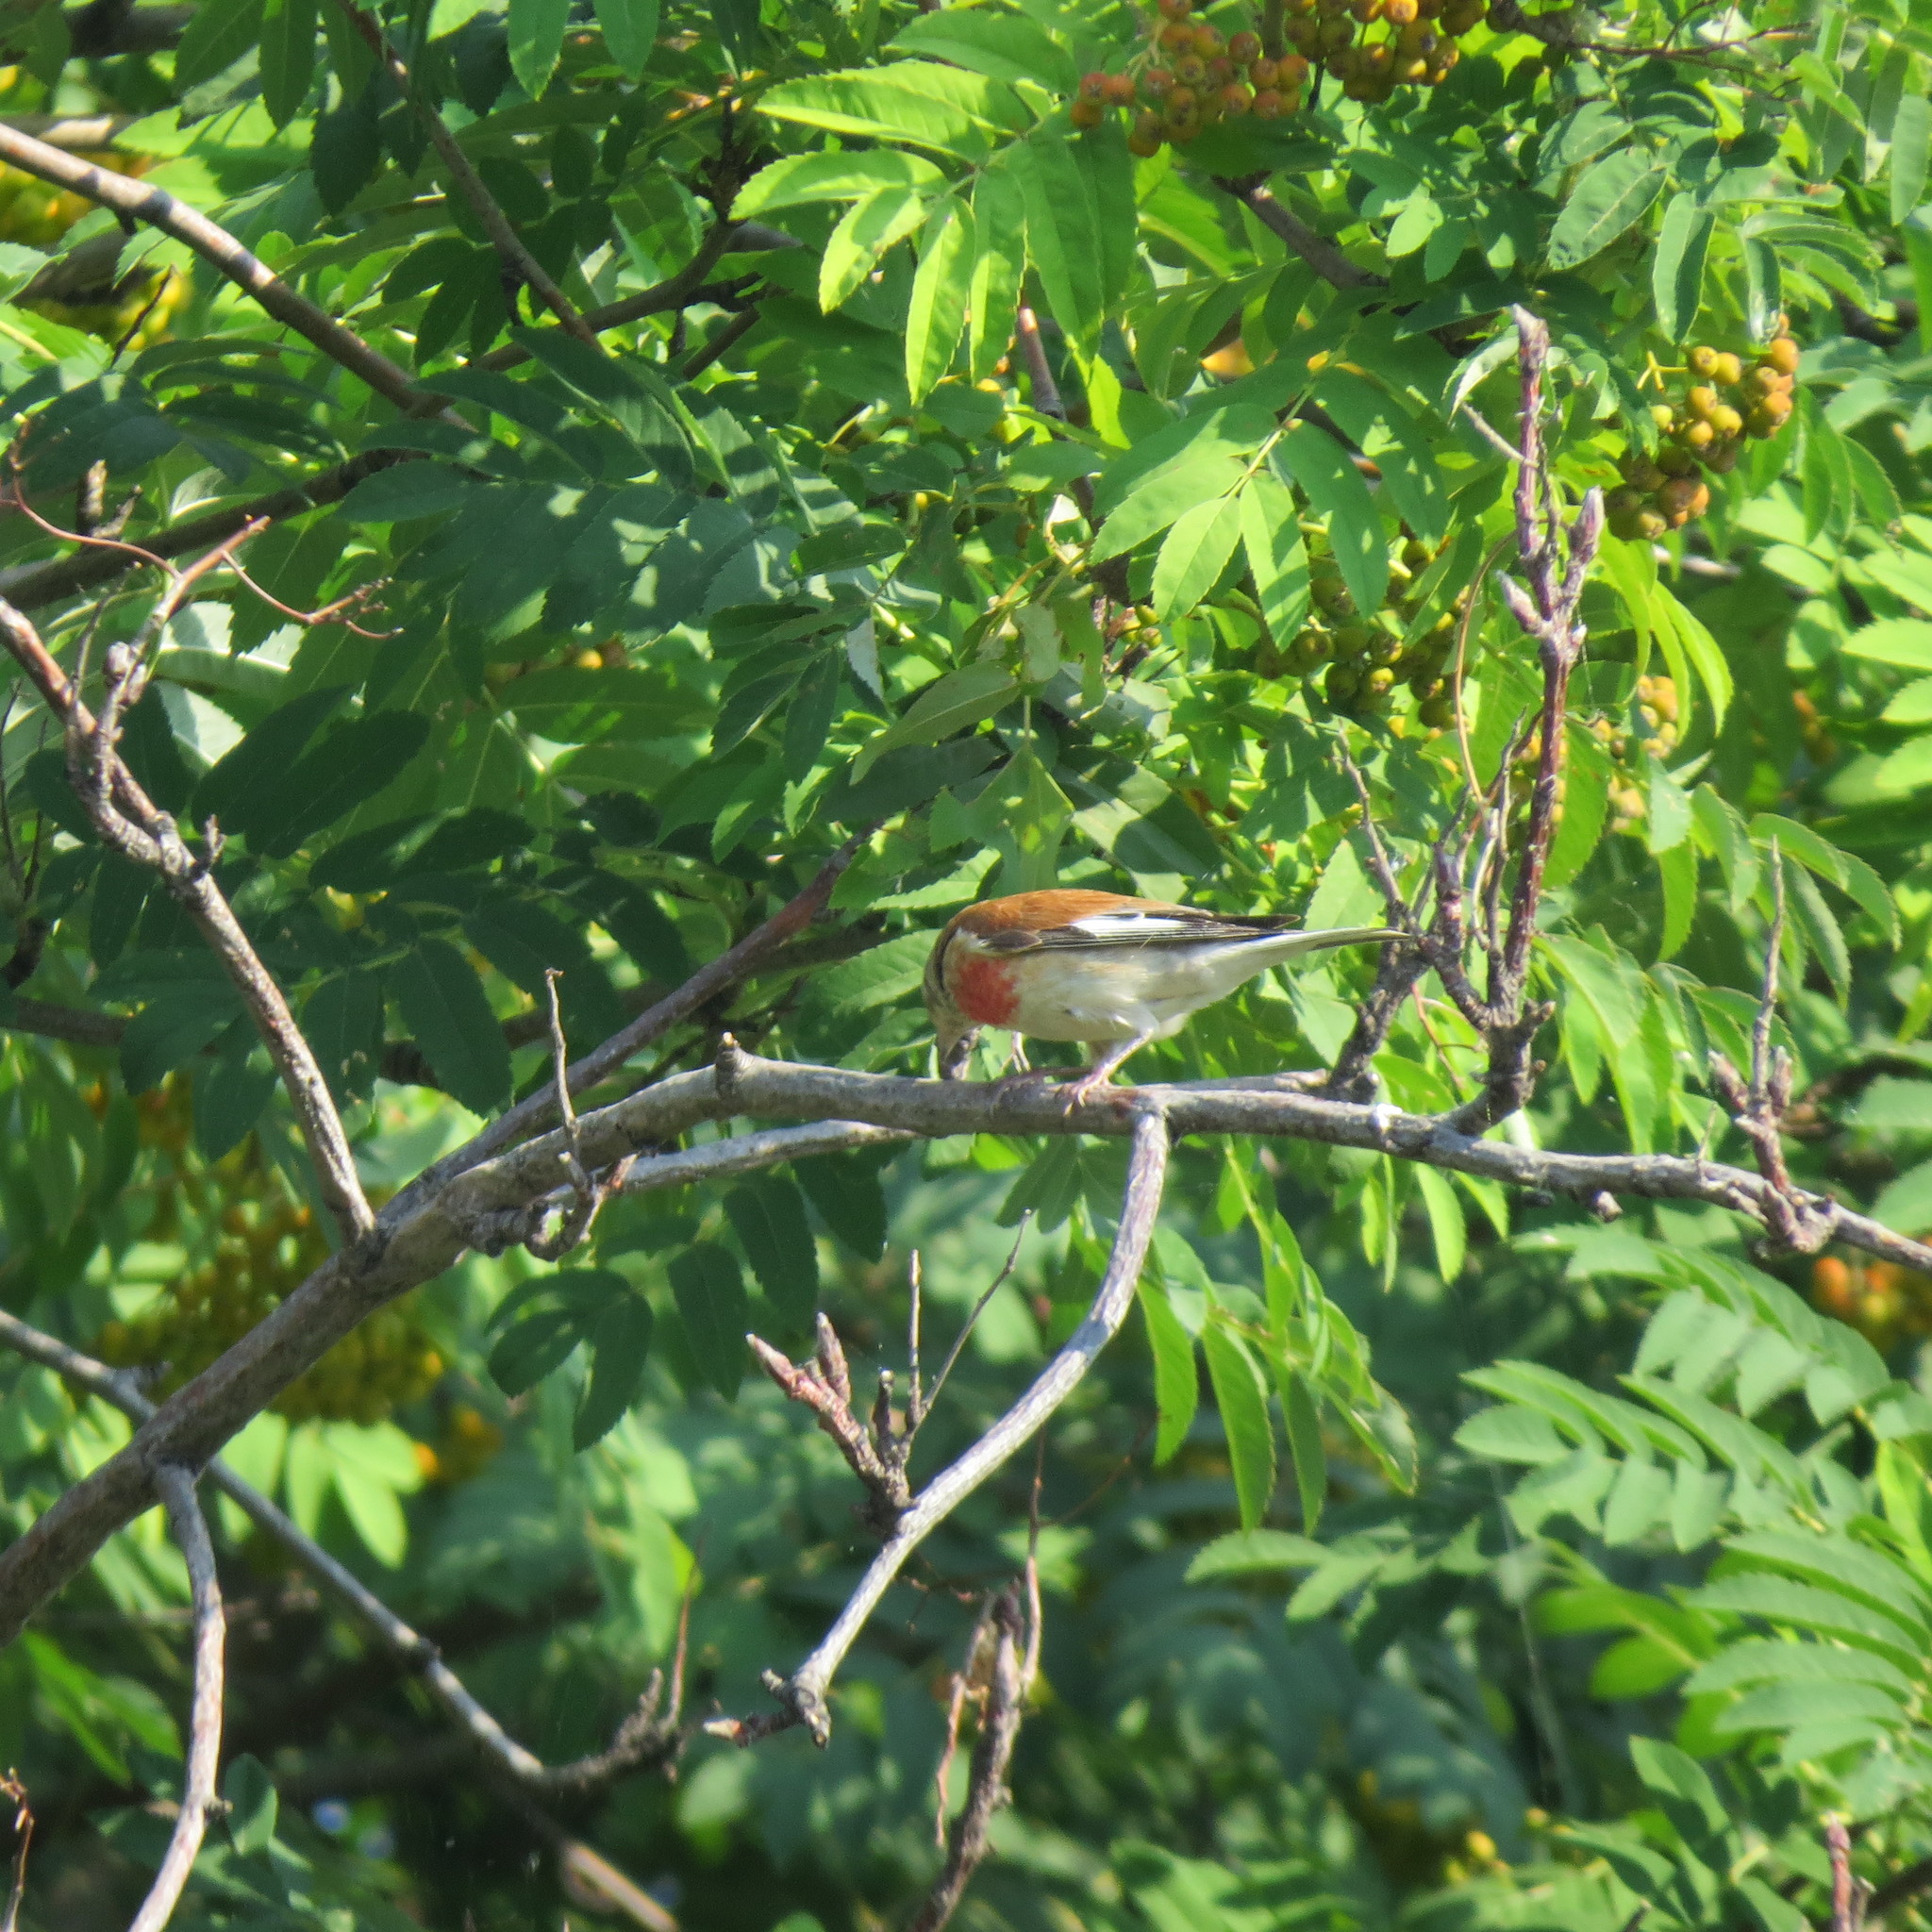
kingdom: Animalia
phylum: Chordata
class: Aves
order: Passeriformes
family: Fringillidae
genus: Linaria
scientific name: Linaria cannabina
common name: Common linnet
